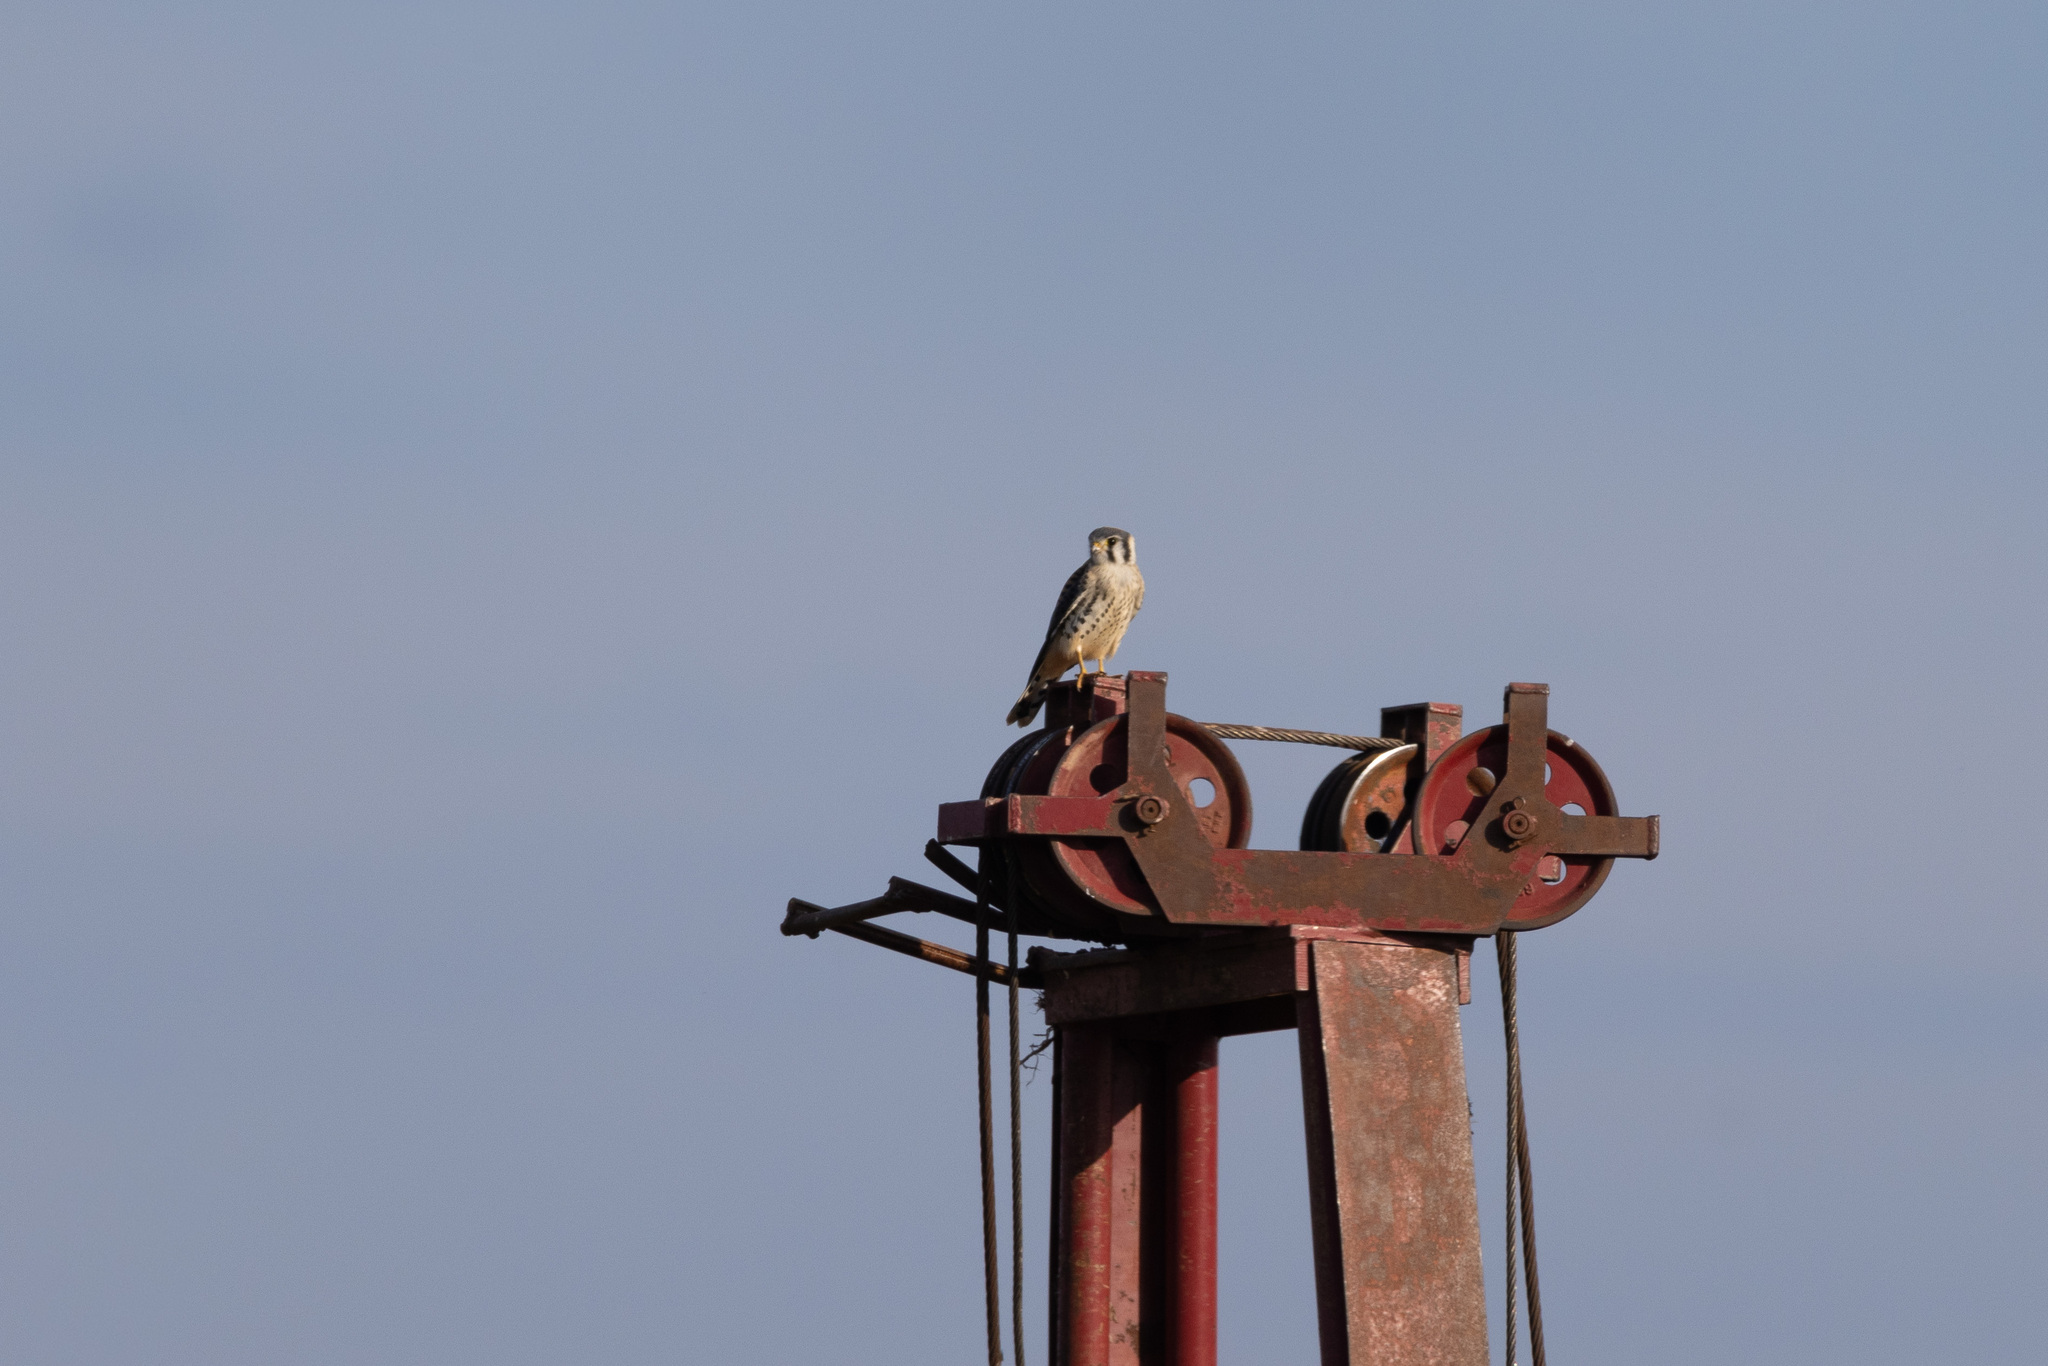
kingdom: Animalia
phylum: Chordata
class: Aves
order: Falconiformes
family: Falconidae
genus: Falco
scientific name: Falco sparverius
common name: American kestrel
